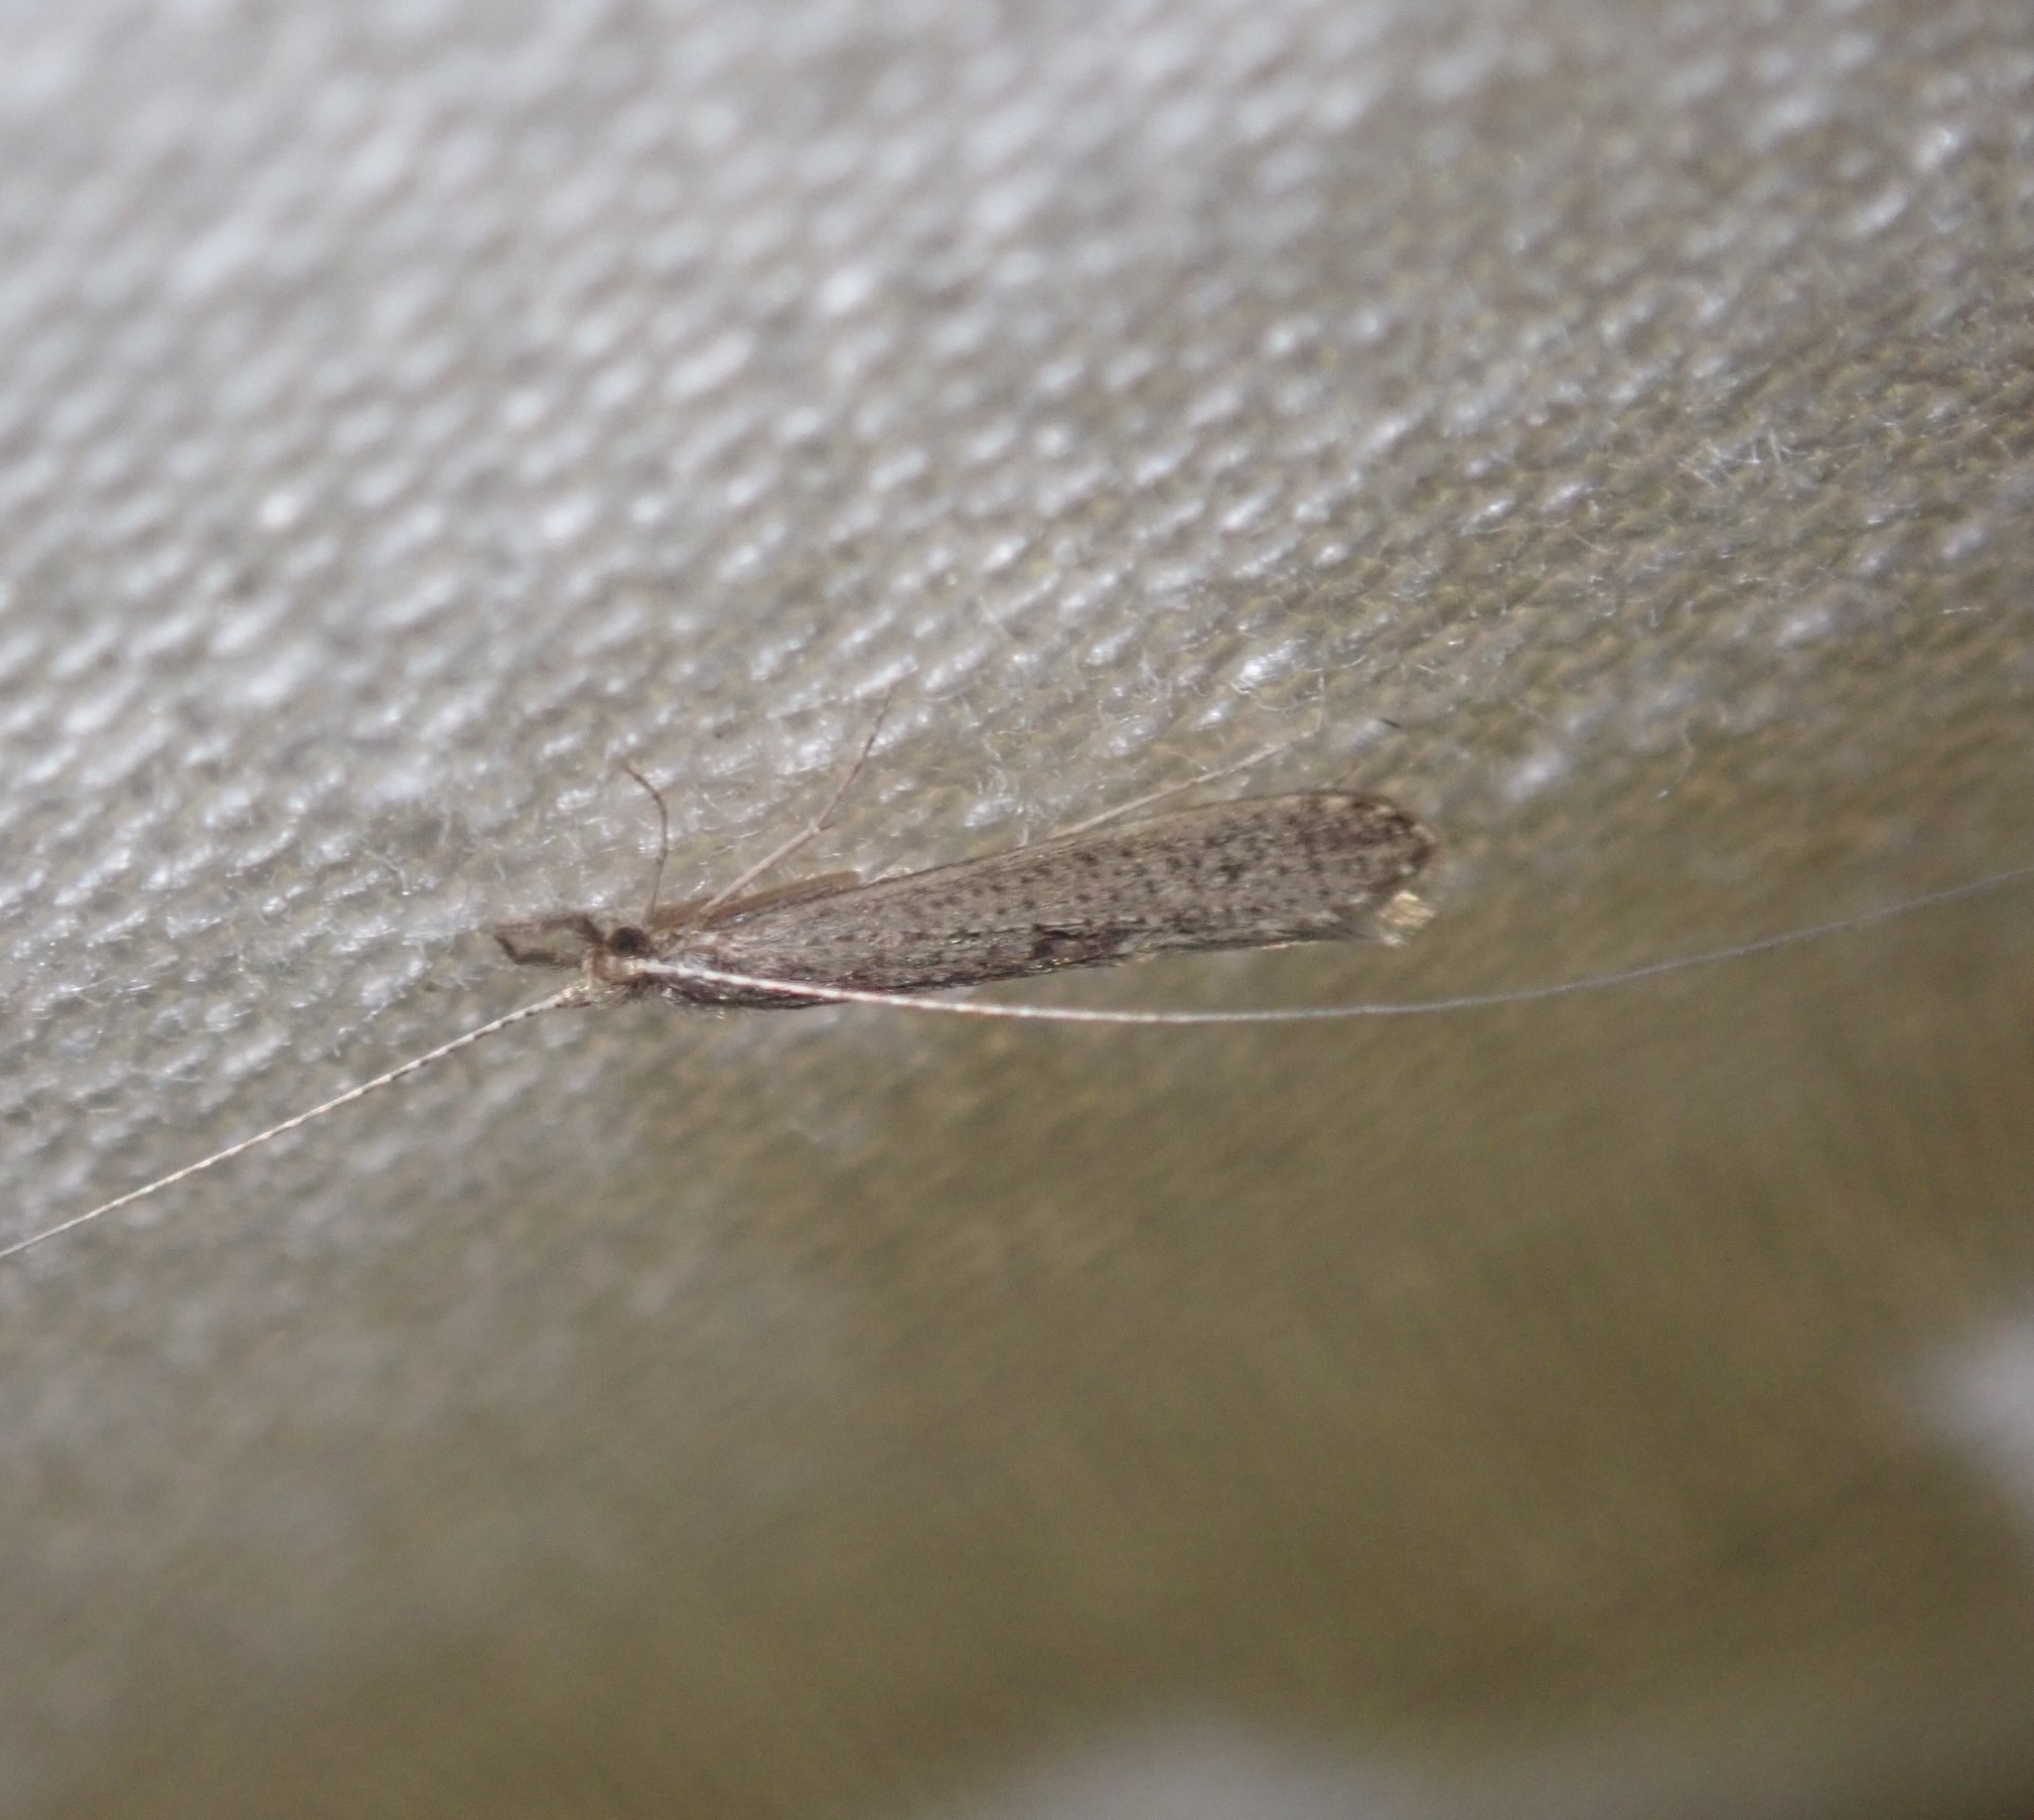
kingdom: Animalia
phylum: Arthropoda
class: Insecta
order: Trichoptera
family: Leptoceridae
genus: Leptocerus
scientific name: Leptocerus tineiformis
